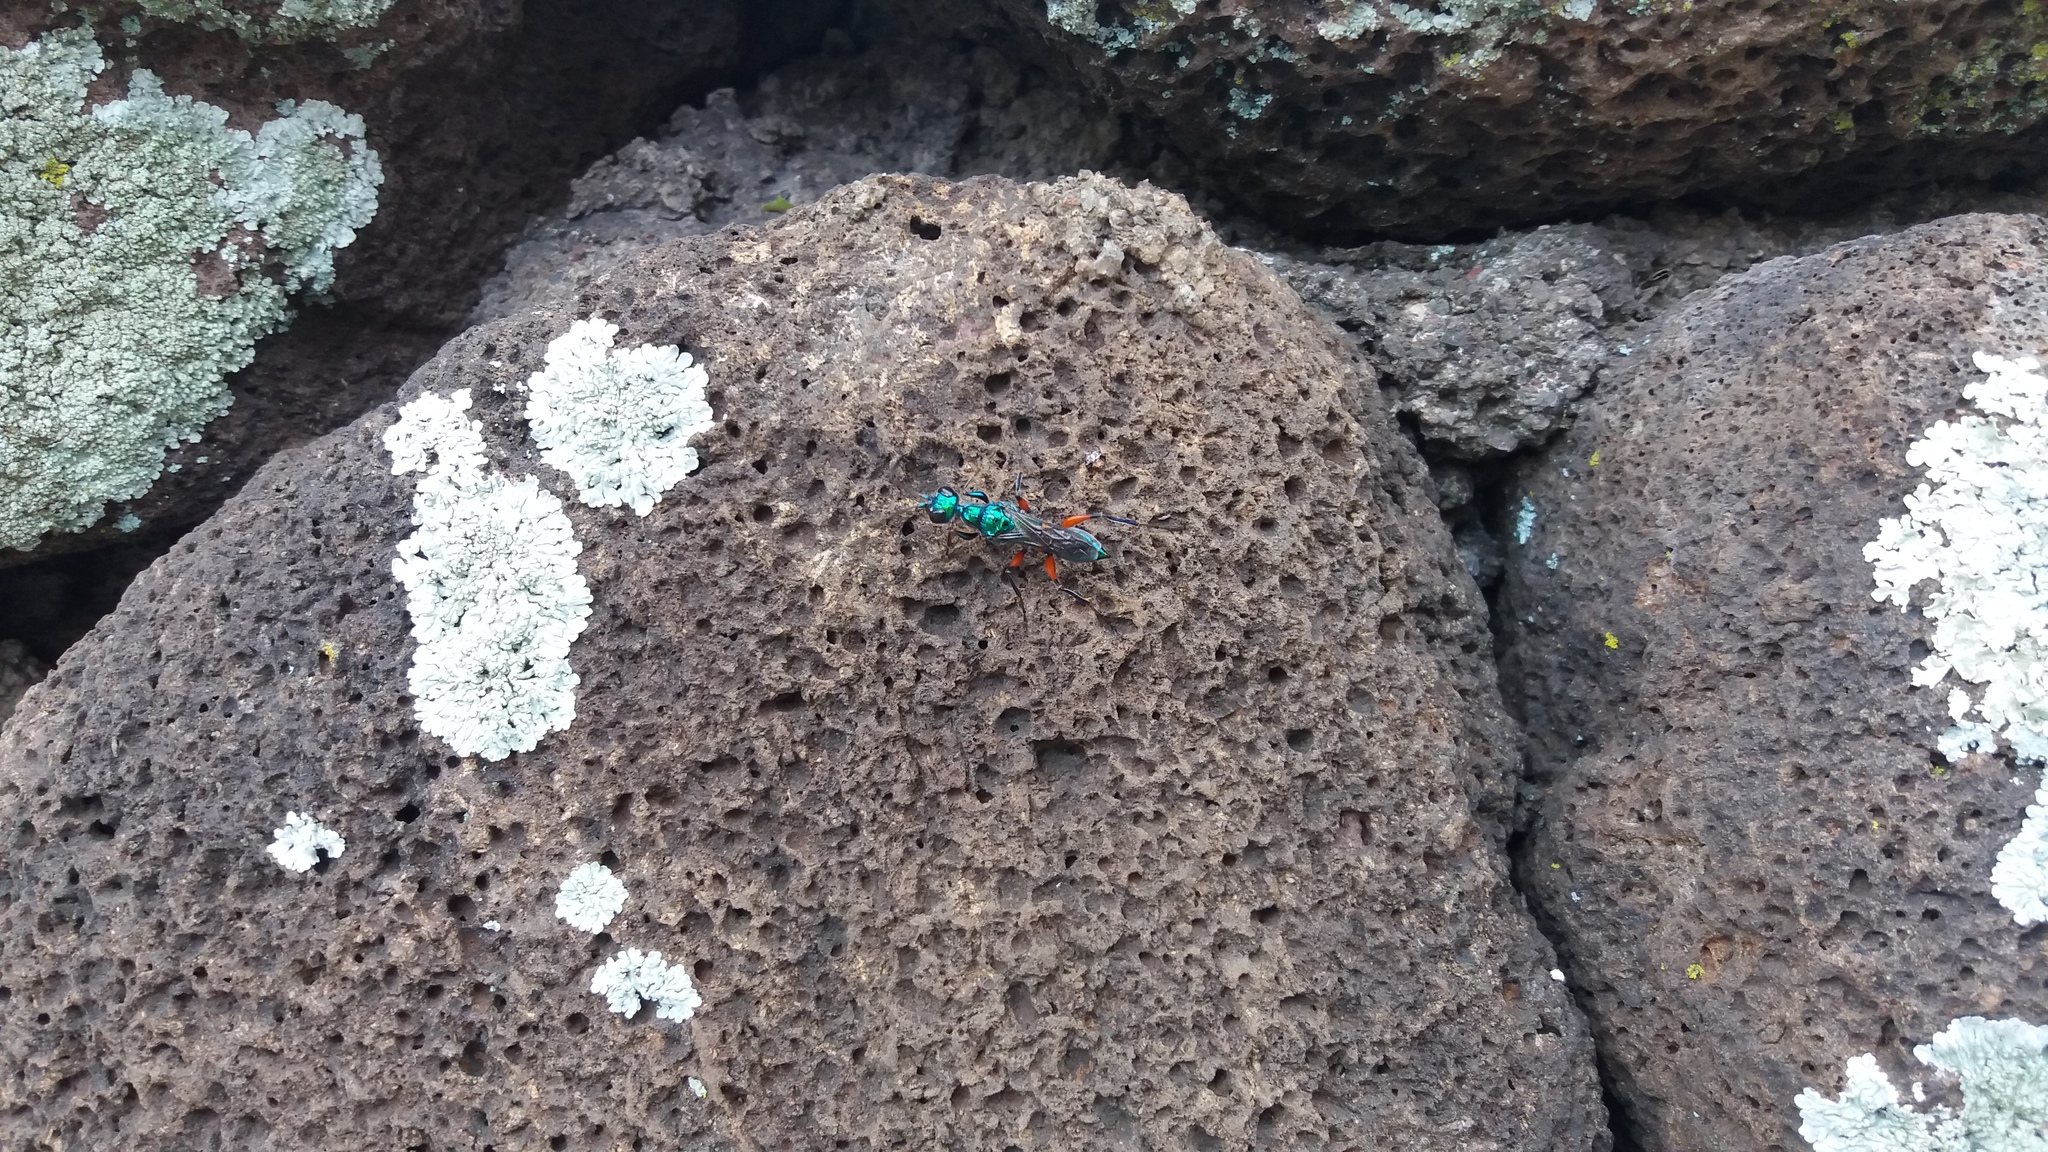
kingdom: Animalia
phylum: Arthropoda
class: Insecta
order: Hymenoptera
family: Ampulicidae
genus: Ampulex
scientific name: Ampulex compressa
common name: Emerald cockroach wasp
